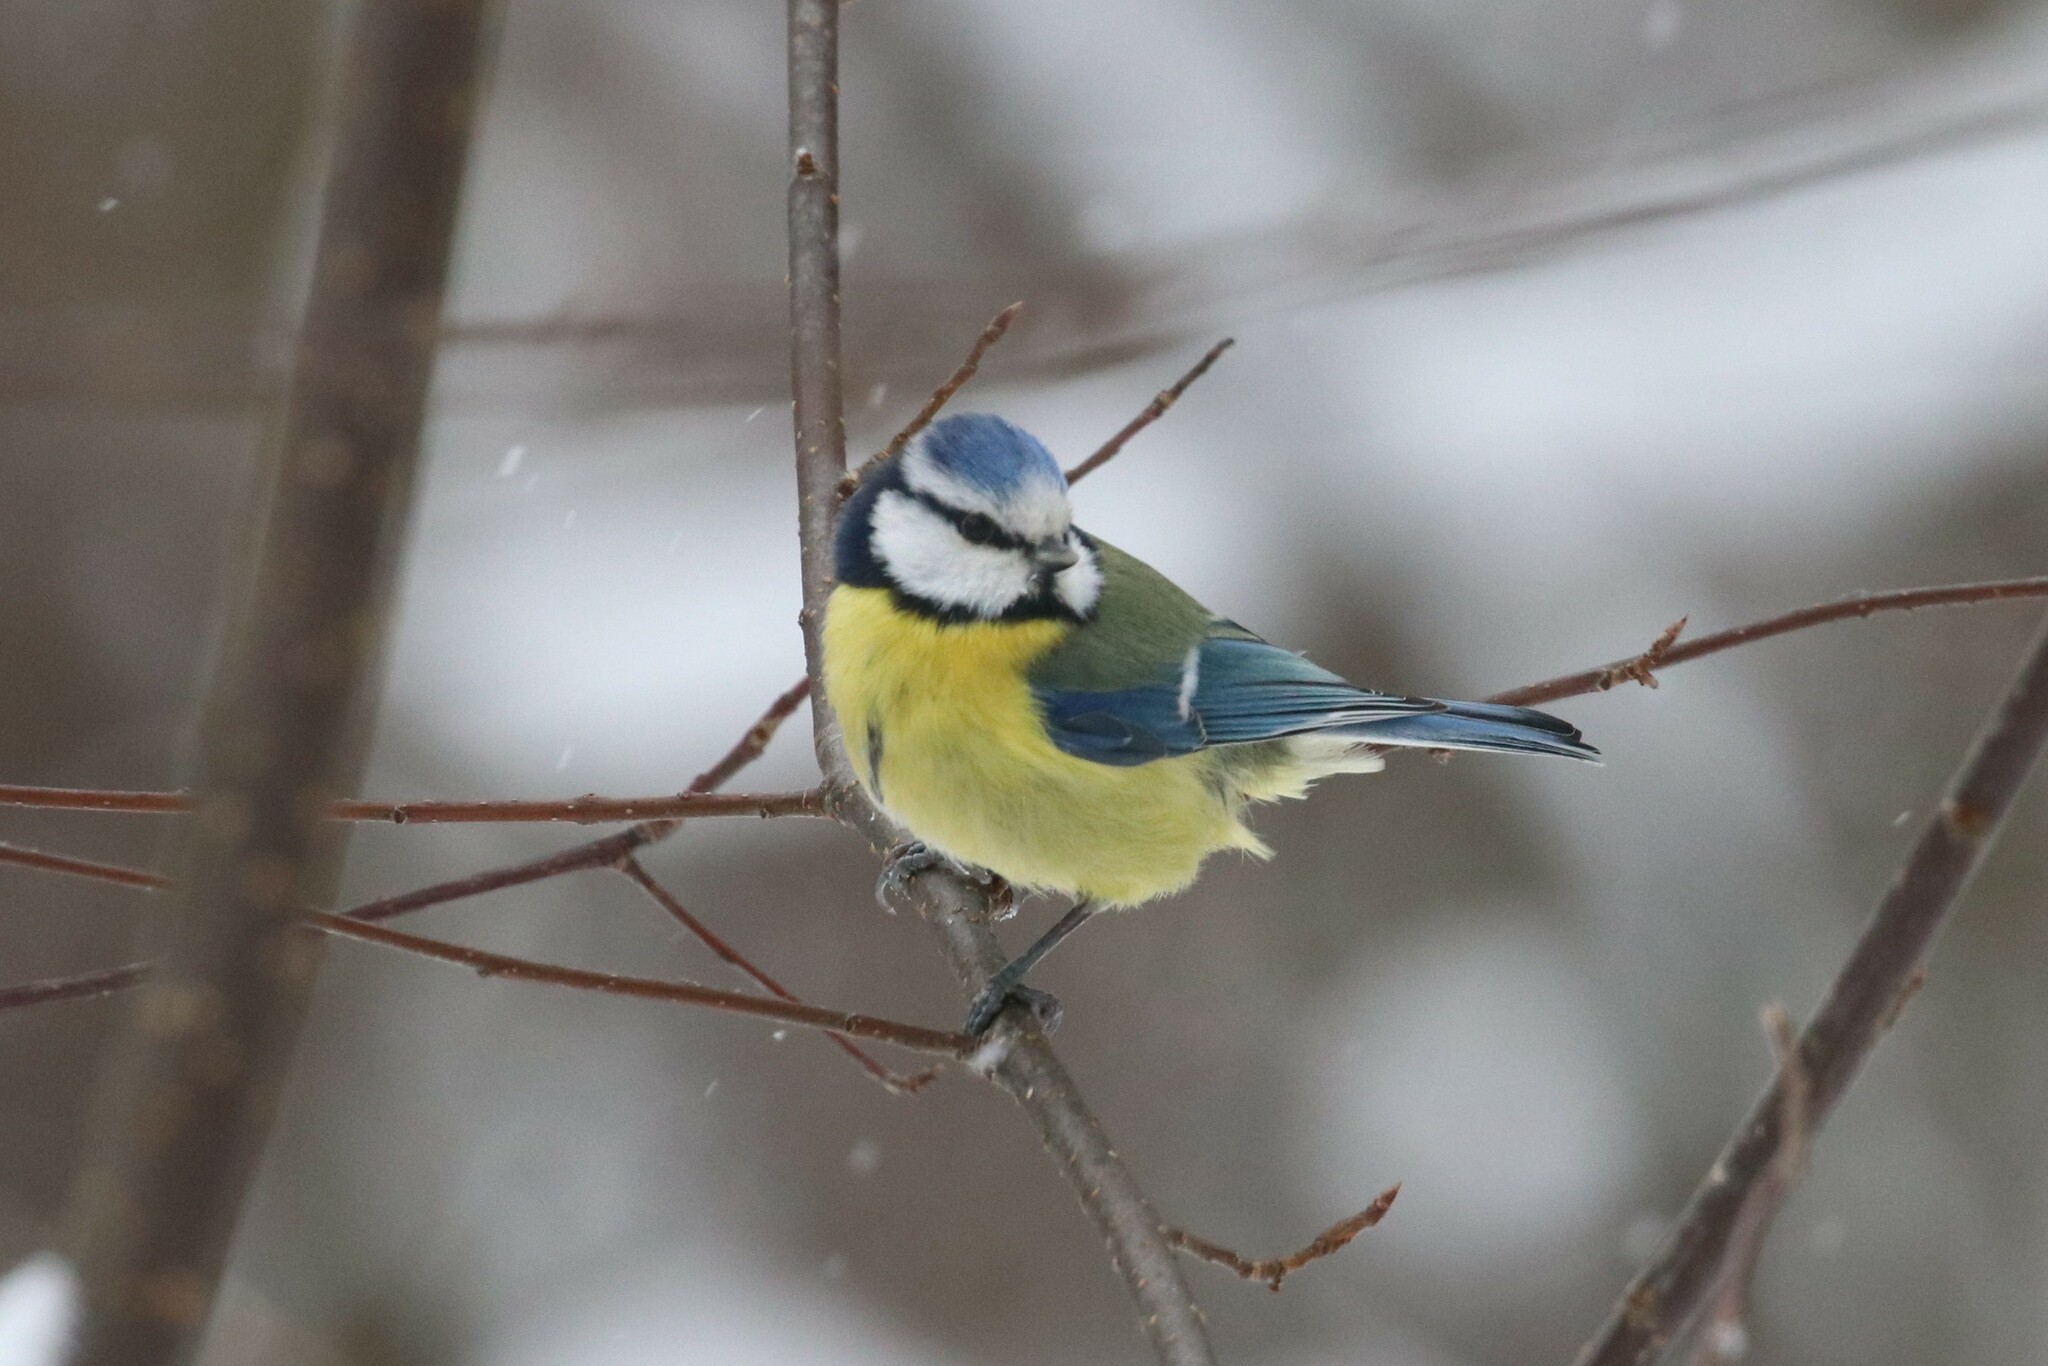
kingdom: Animalia
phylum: Chordata
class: Aves
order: Passeriformes
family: Paridae
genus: Cyanistes
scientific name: Cyanistes caeruleus
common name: Eurasian blue tit
